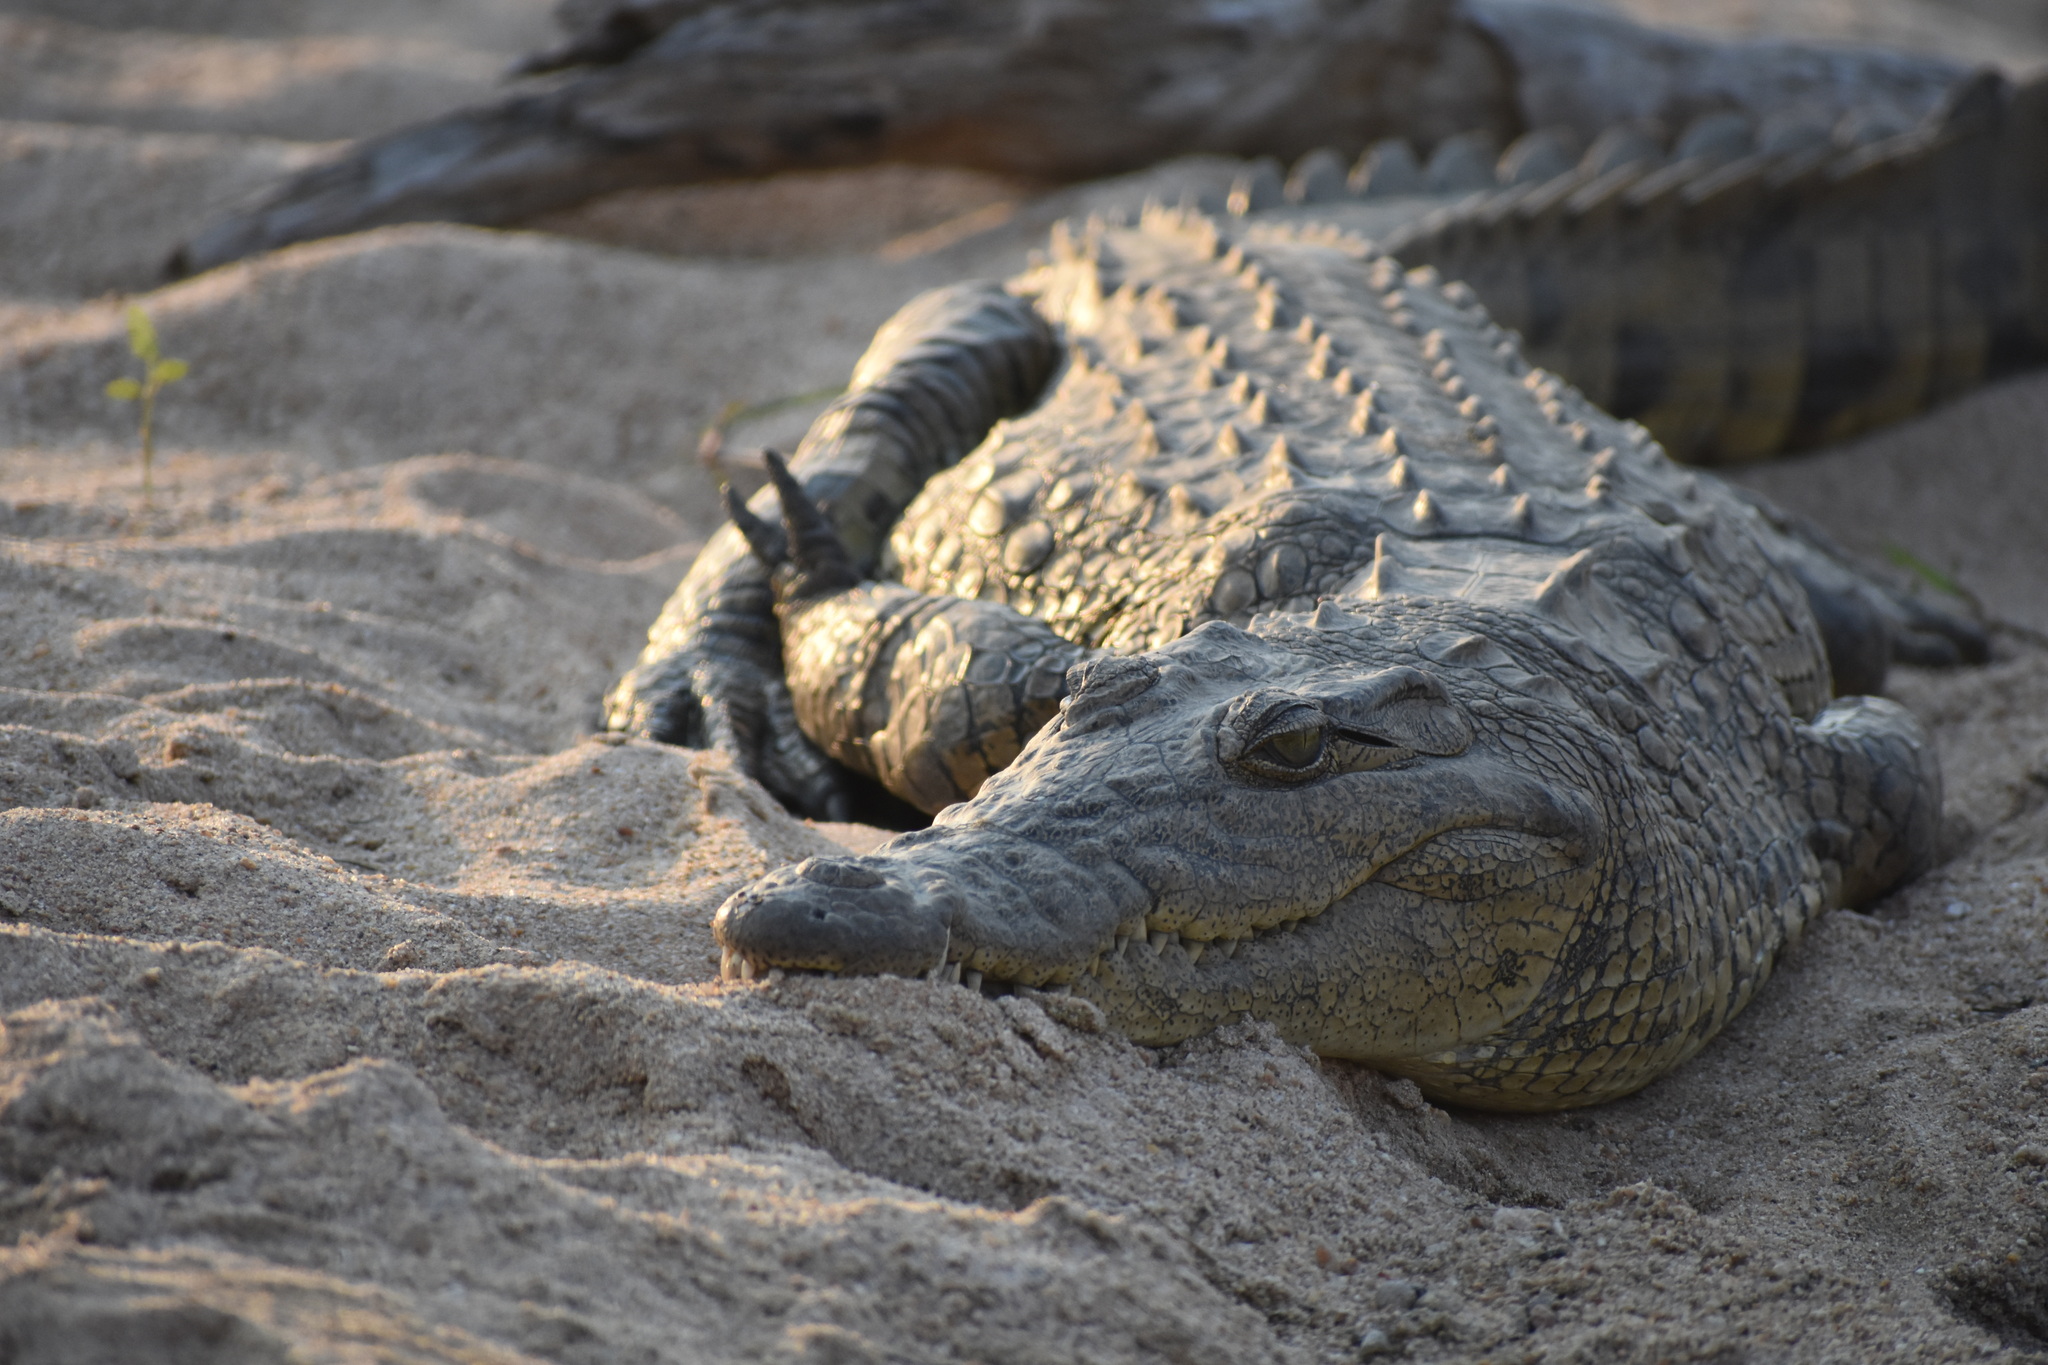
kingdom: Animalia
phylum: Chordata
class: Crocodylia
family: Crocodylidae
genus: Crocodylus
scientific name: Crocodylus niloticus
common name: Nile crocodile
